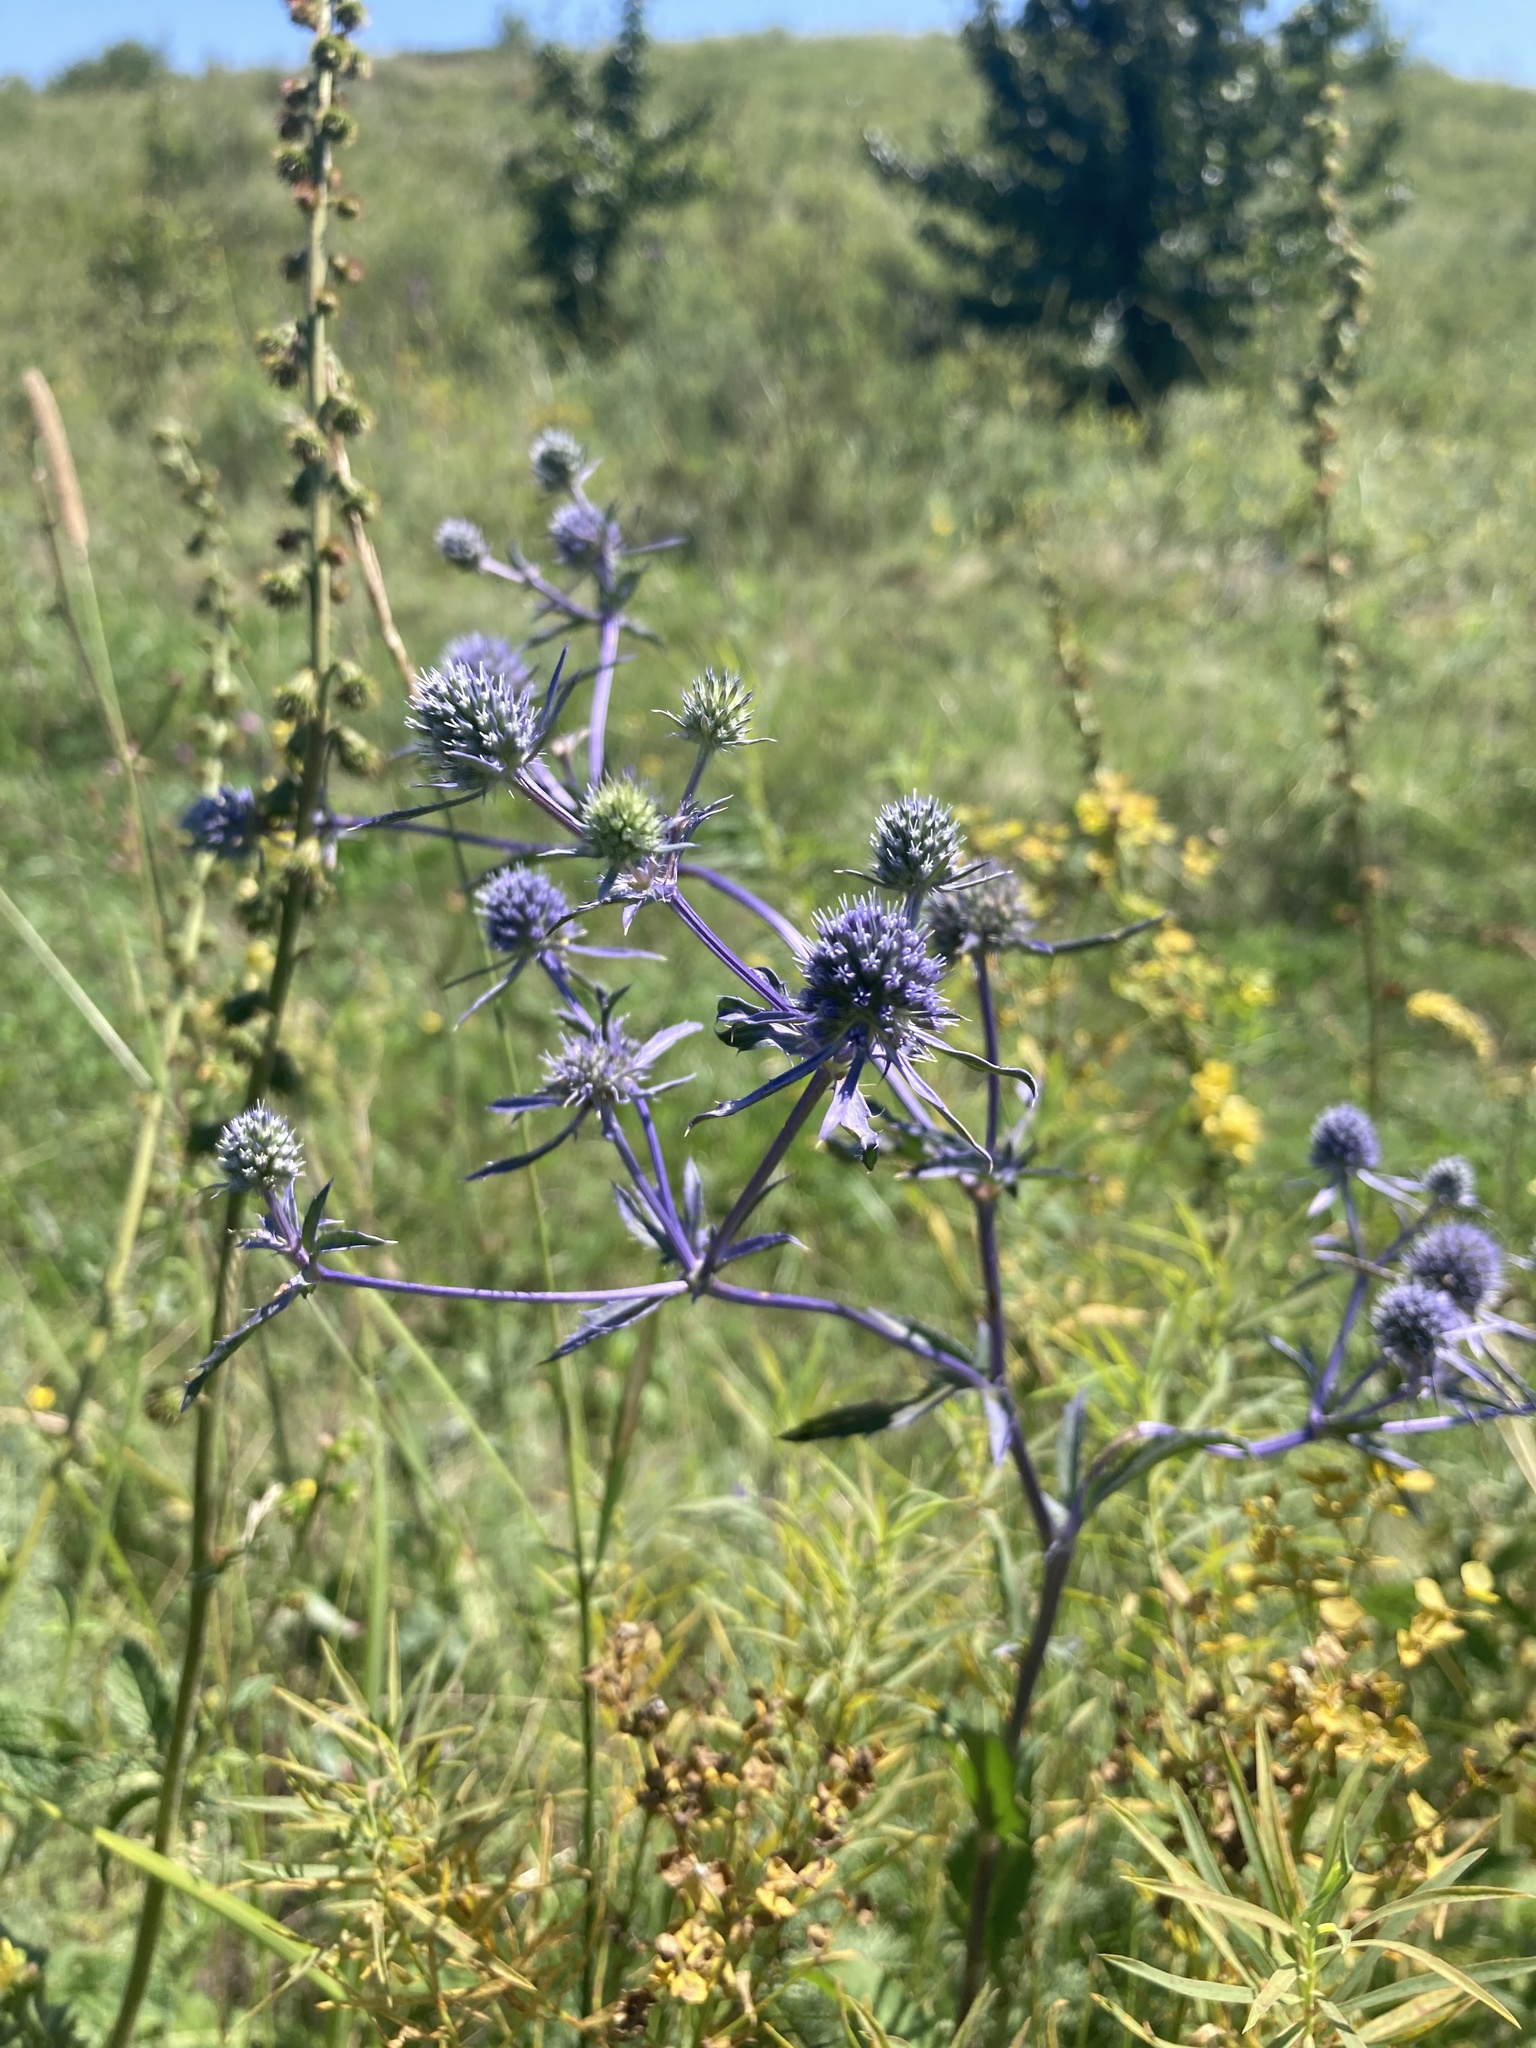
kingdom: Plantae
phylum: Tracheophyta
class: Magnoliopsida
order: Apiales
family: Apiaceae
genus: Eryngium
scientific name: Eryngium planum
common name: Blue eryngo
